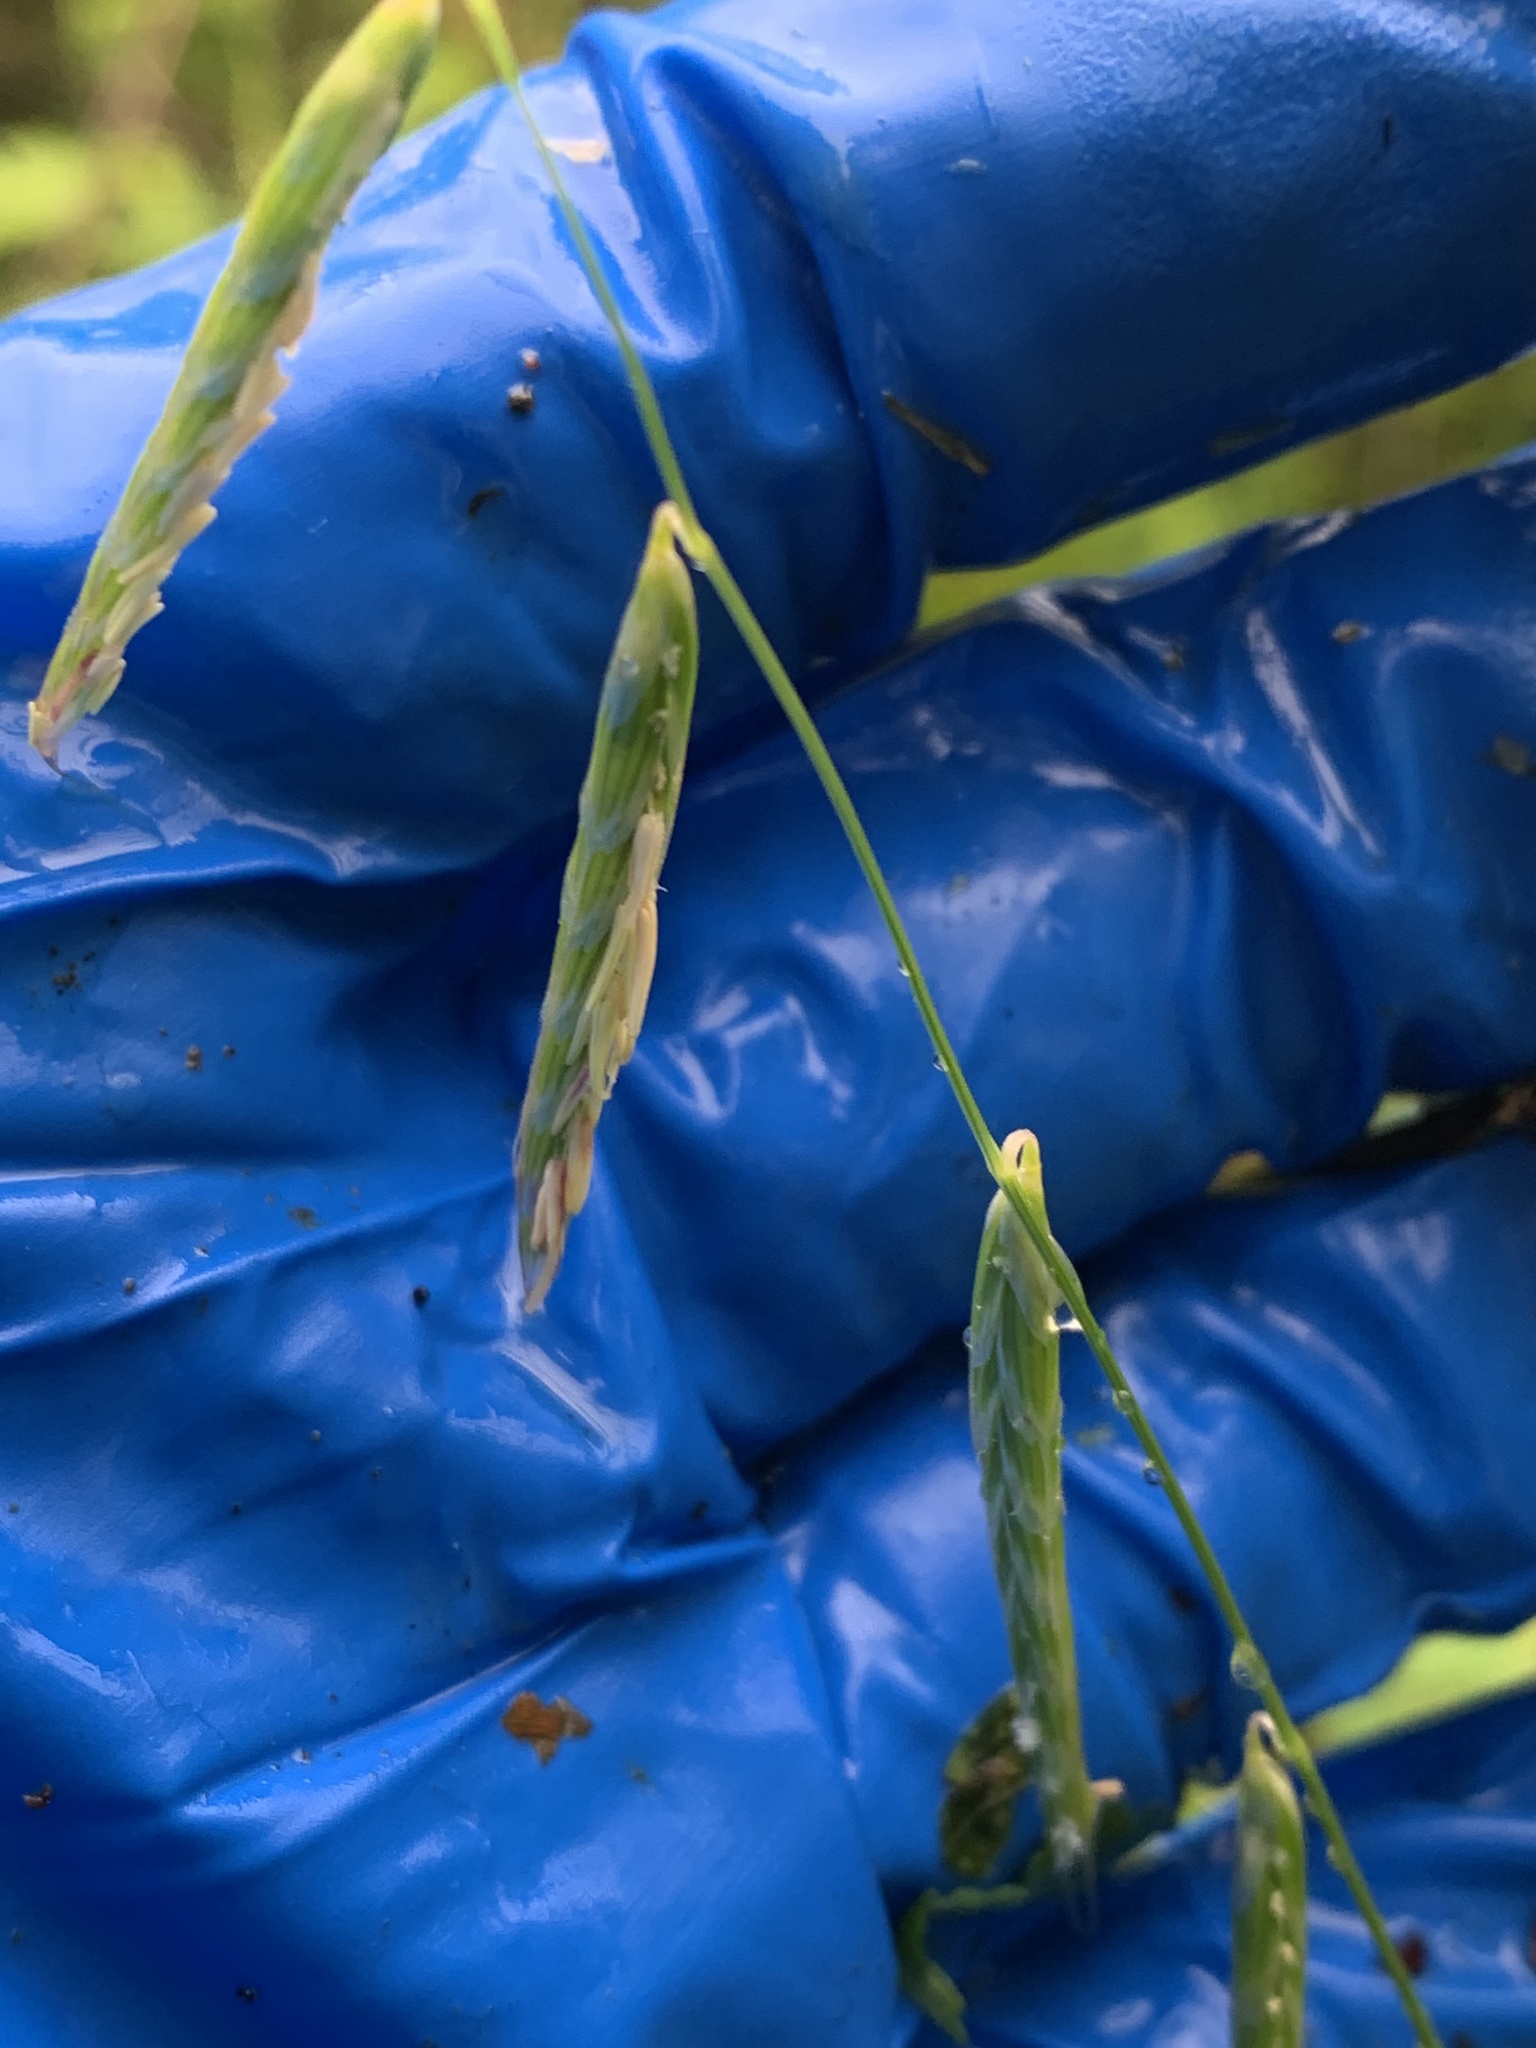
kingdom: Plantae
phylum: Tracheophyta
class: Liliopsida
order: Poales
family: Poaceae
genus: Pleuropogon
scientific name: Pleuropogon refractus
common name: Nodding false semaphoregrass
